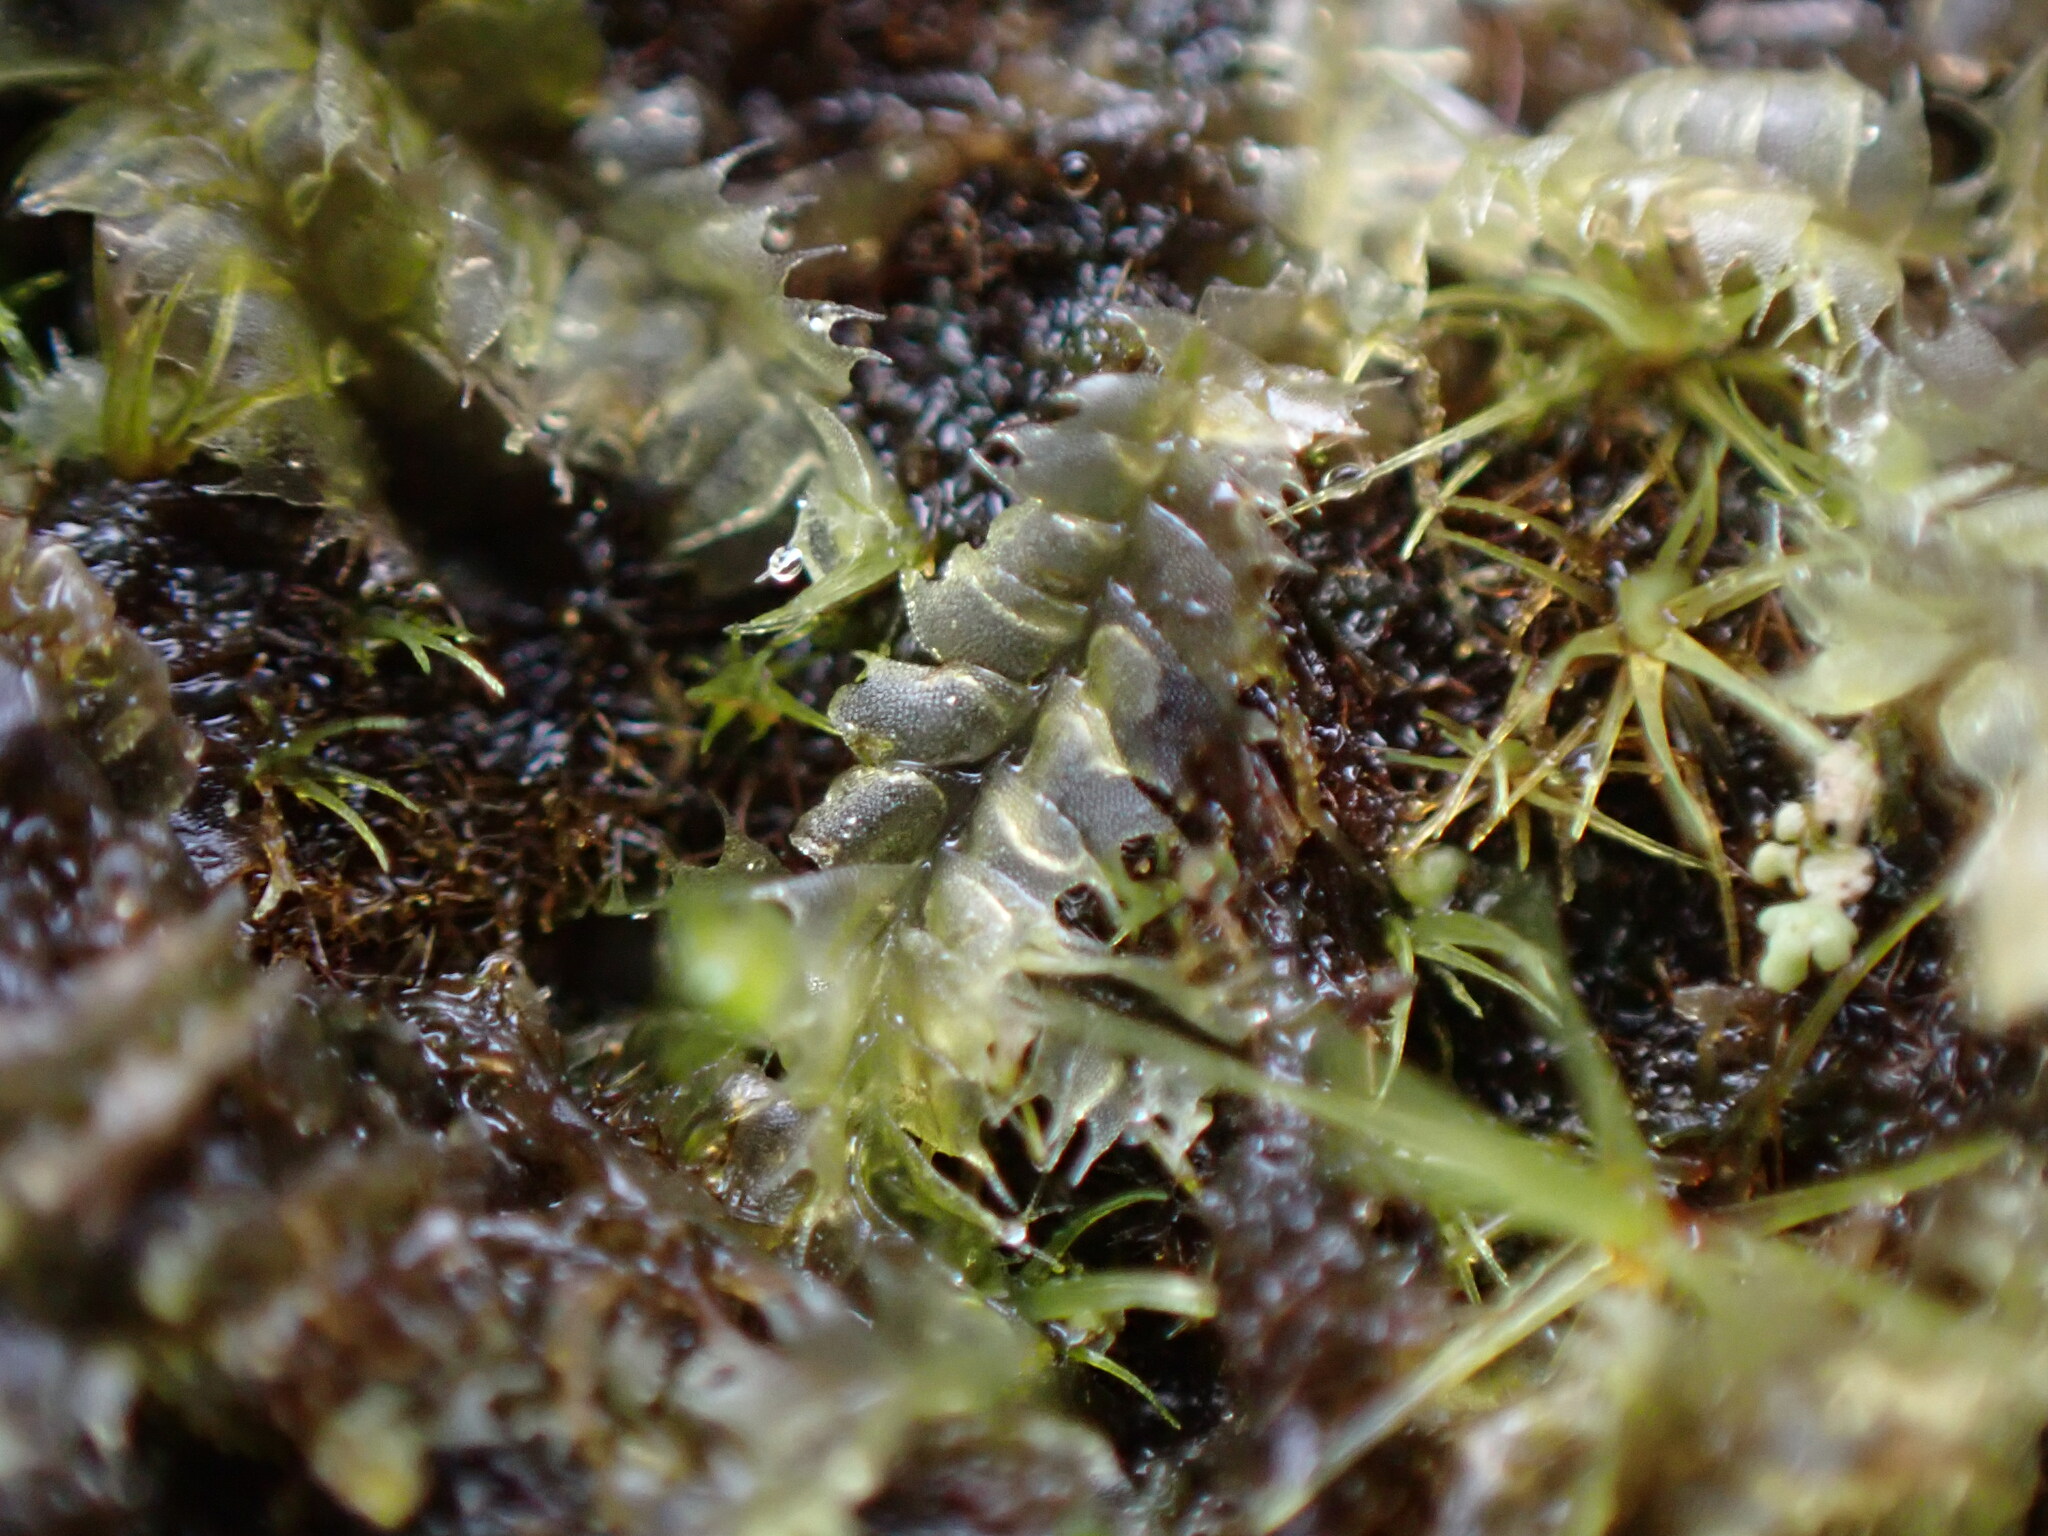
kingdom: Plantae
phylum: Marchantiophyta
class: Jungermanniopsida
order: Jungermanniales
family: Lophocoleaceae
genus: Lophocolea
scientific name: Lophocolea bidentata
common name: Bifid crestwort
